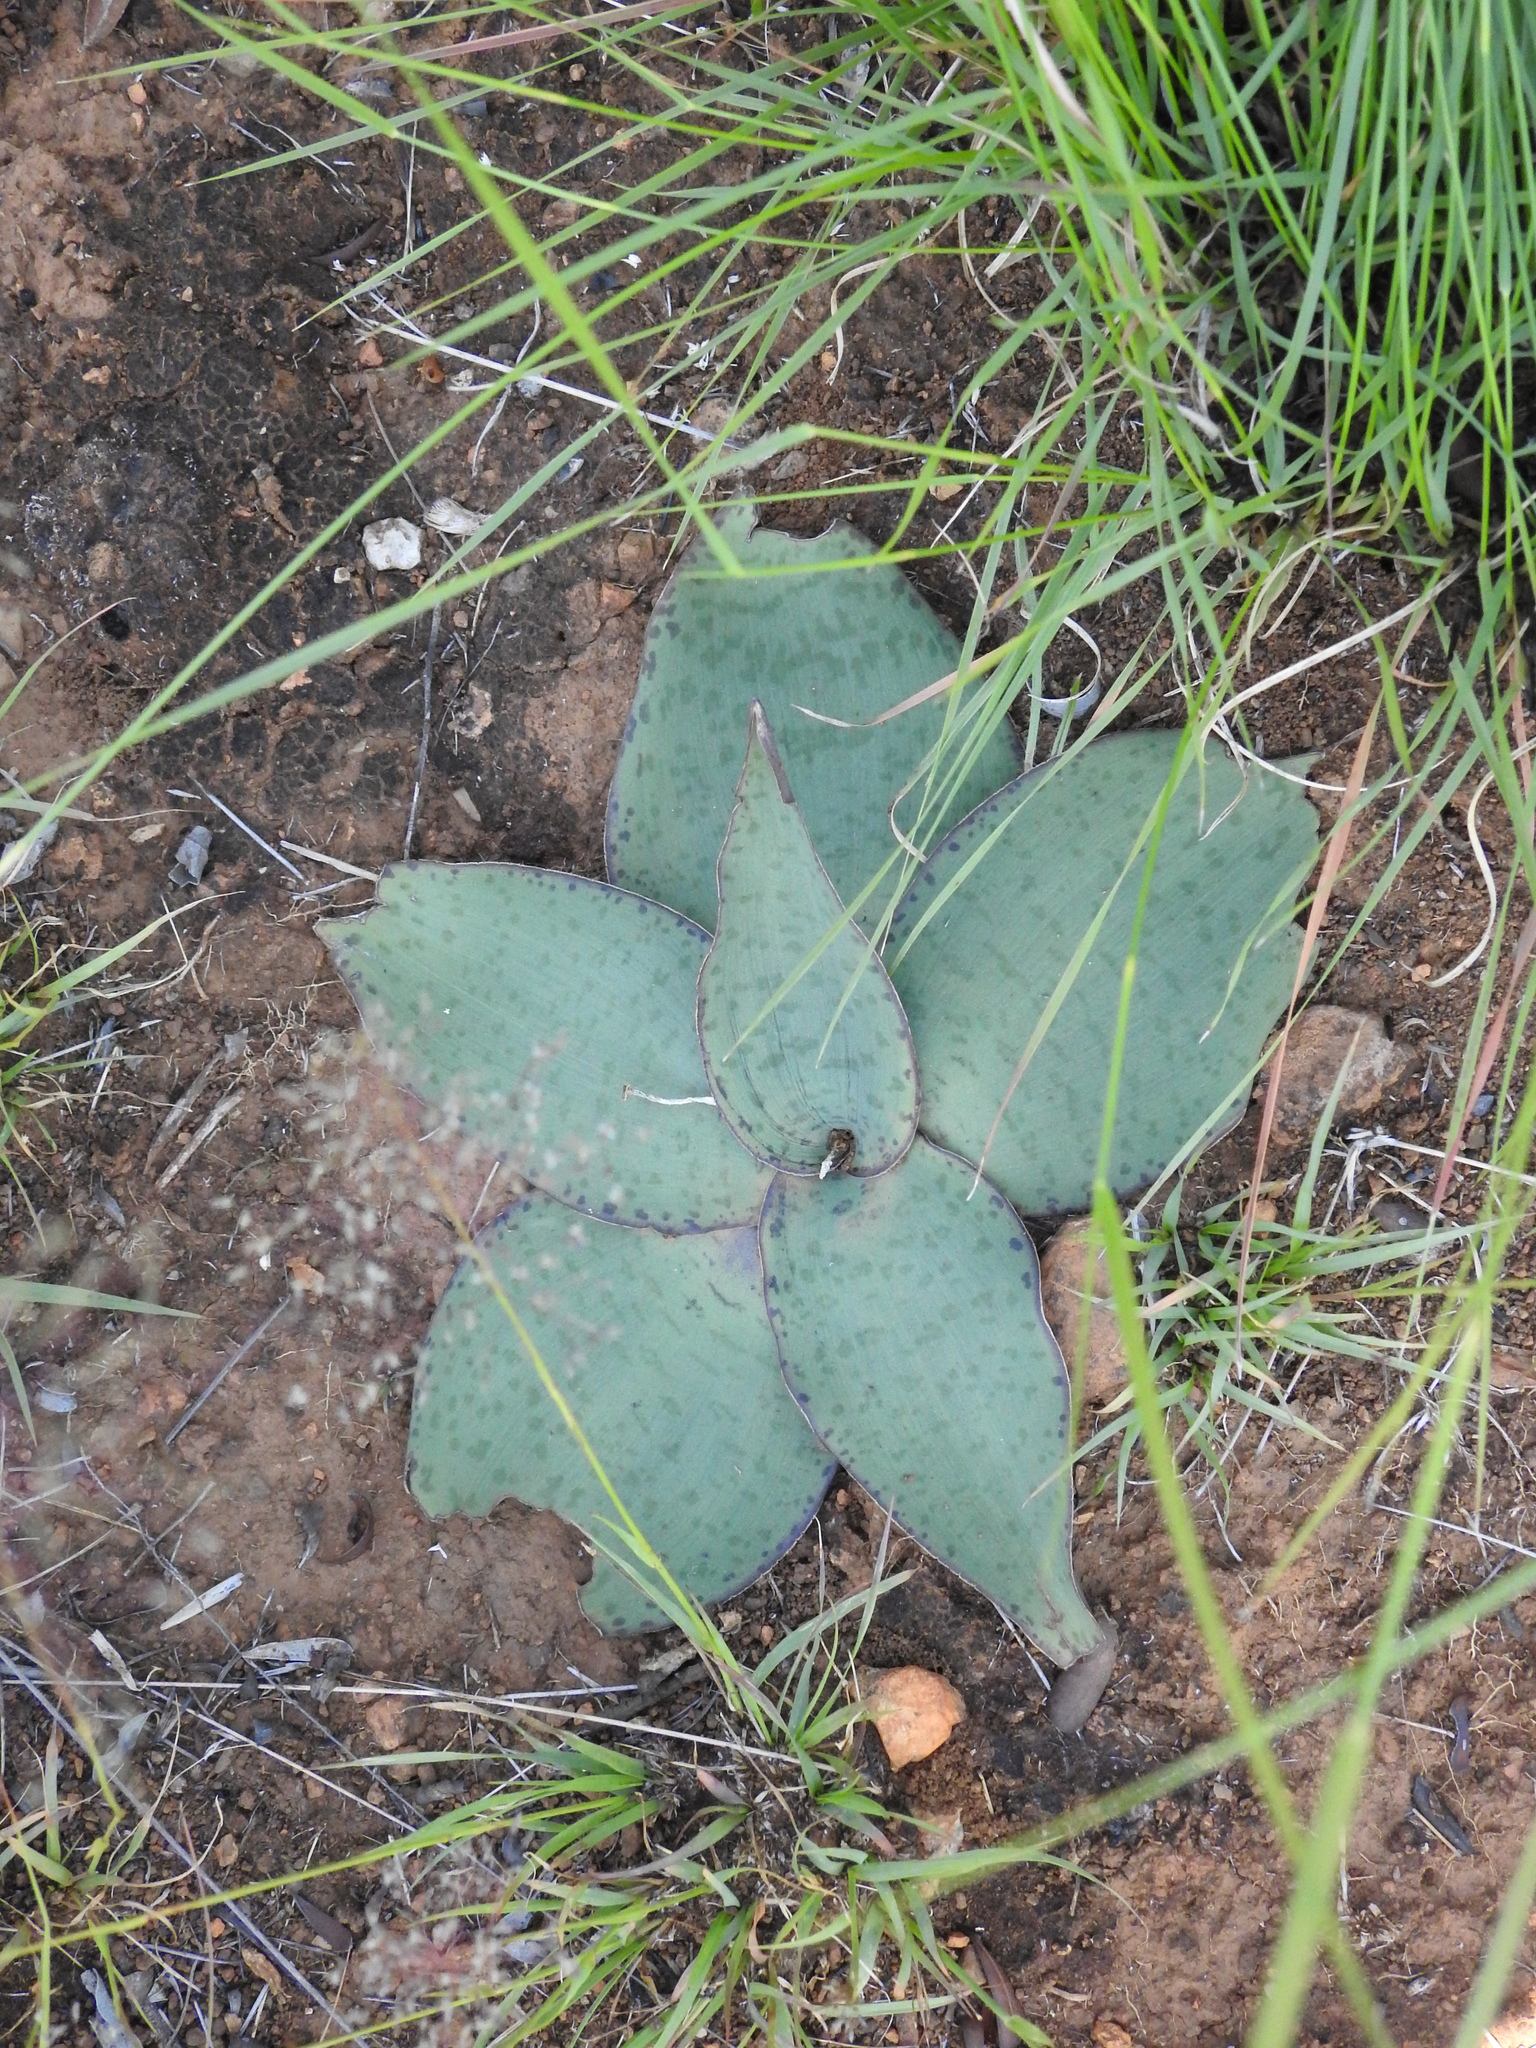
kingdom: Plantae
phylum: Tracheophyta
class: Liliopsida
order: Asparagales
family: Asparagaceae
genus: Ledebouria
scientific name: Ledebouria ovatifolia
